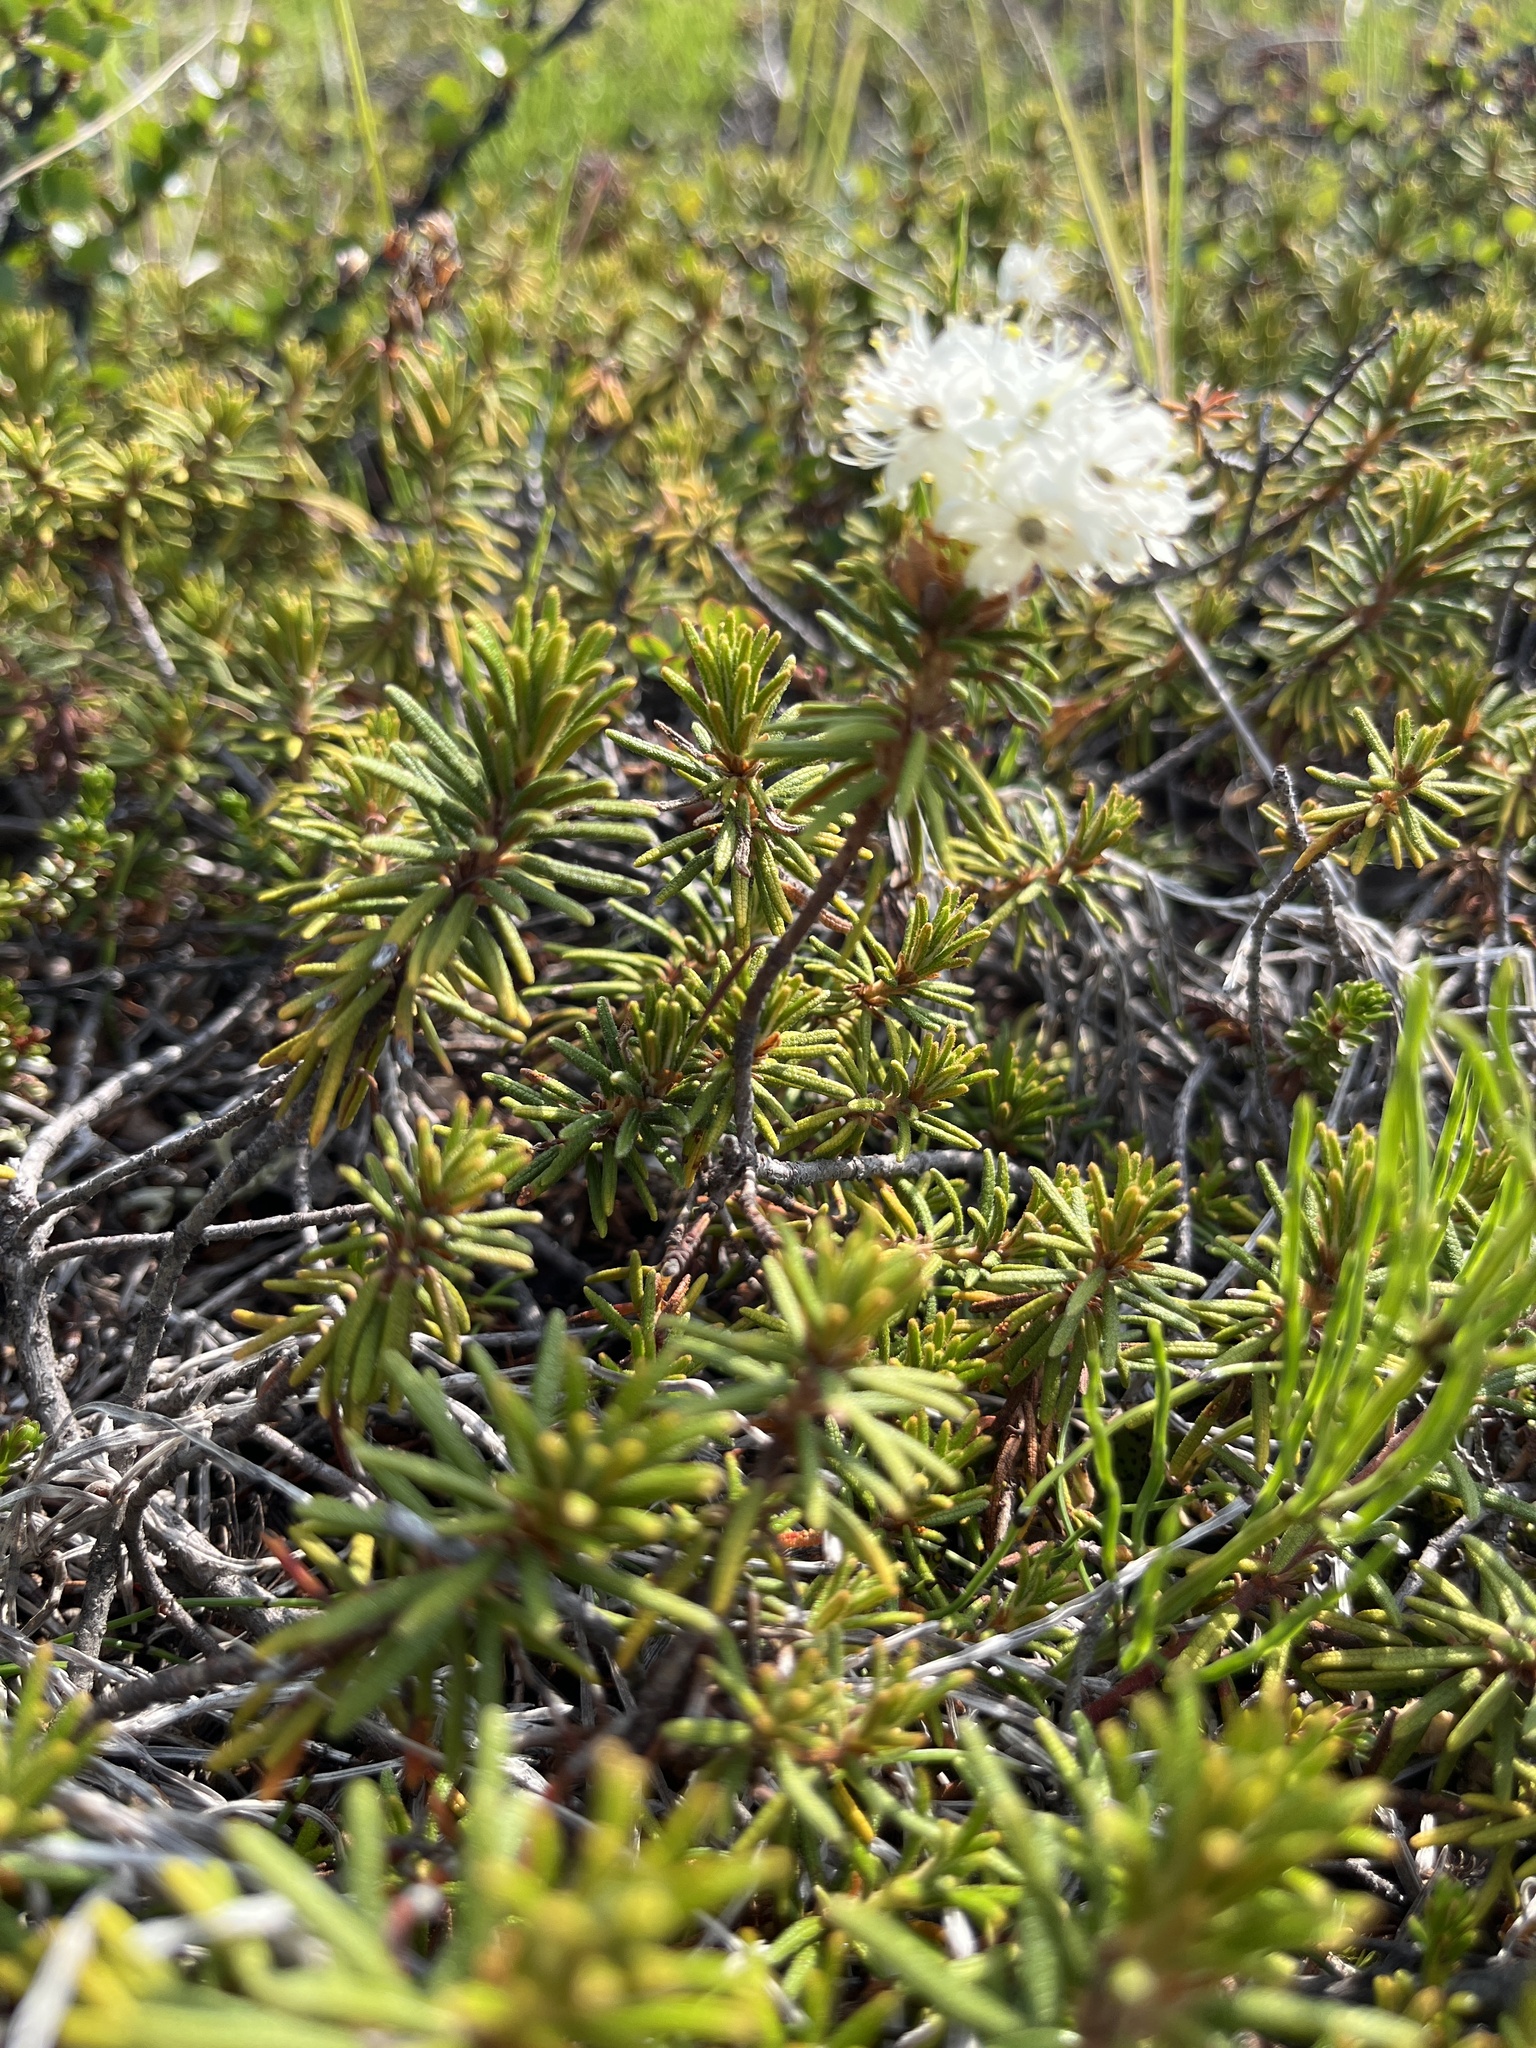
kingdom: Plantae
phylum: Tracheophyta
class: Magnoliopsida
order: Ericales
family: Ericaceae
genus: Rhododendron
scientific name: Rhododendron tomentosum
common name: Marsh labrador tea
